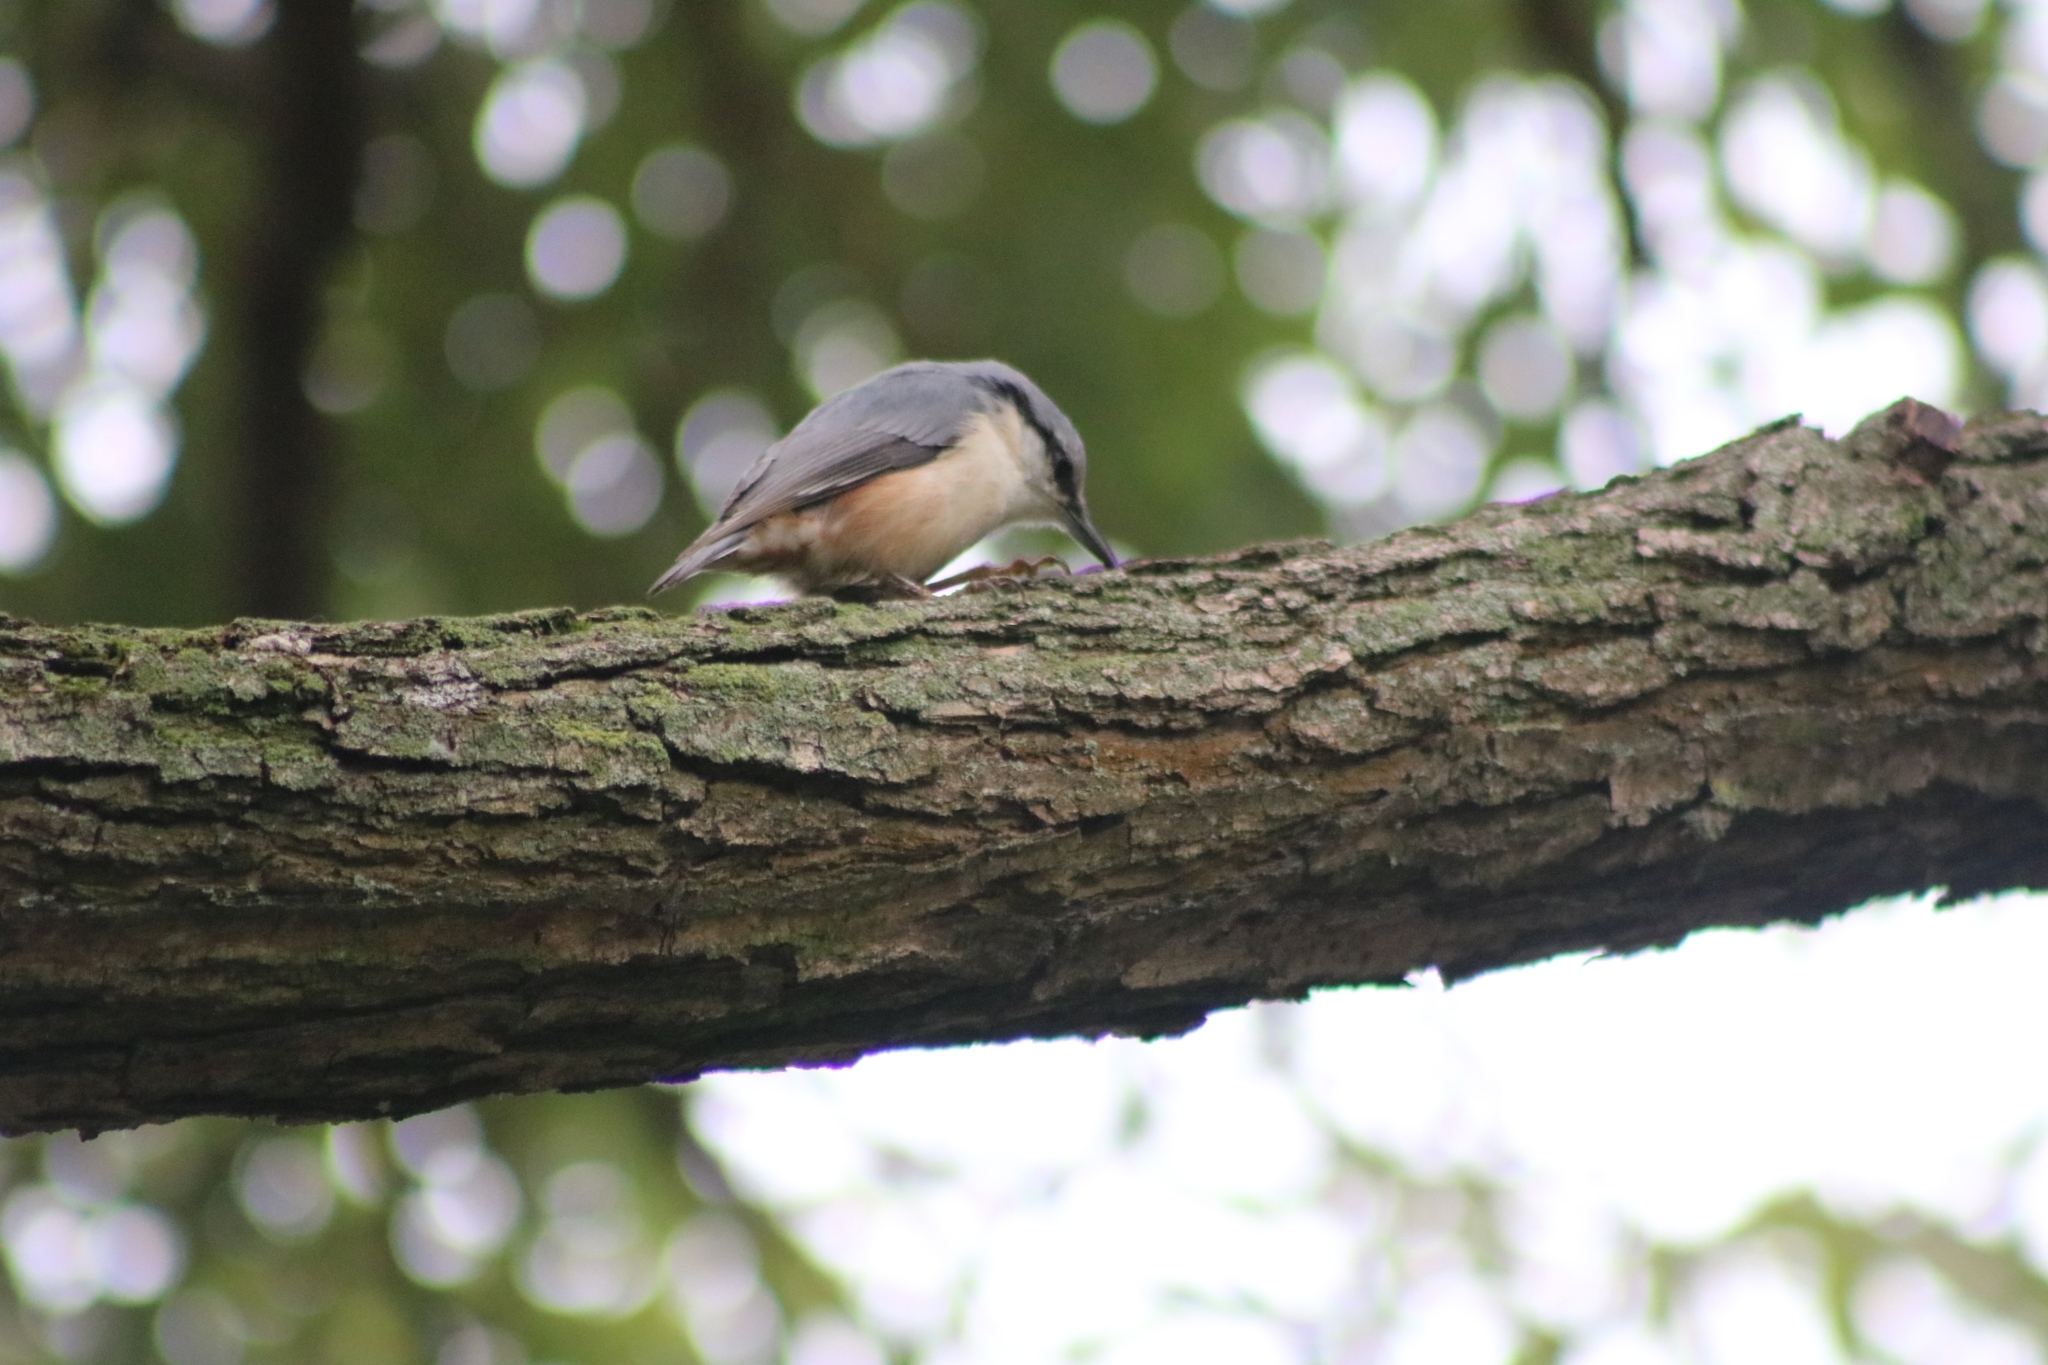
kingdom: Animalia
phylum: Chordata
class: Aves
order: Passeriformes
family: Sittidae
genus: Sitta
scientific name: Sitta europaea
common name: Eurasian nuthatch
